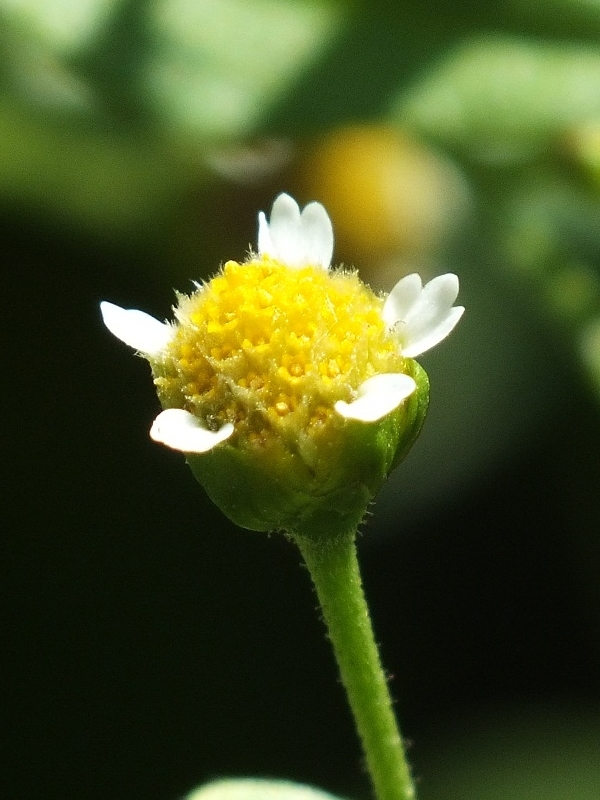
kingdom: Plantae
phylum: Tracheophyta
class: Magnoliopsida
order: Asterales
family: Asteraceae
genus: Galinsoga
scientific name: Galinsoga parviflora
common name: Gallant soldier
